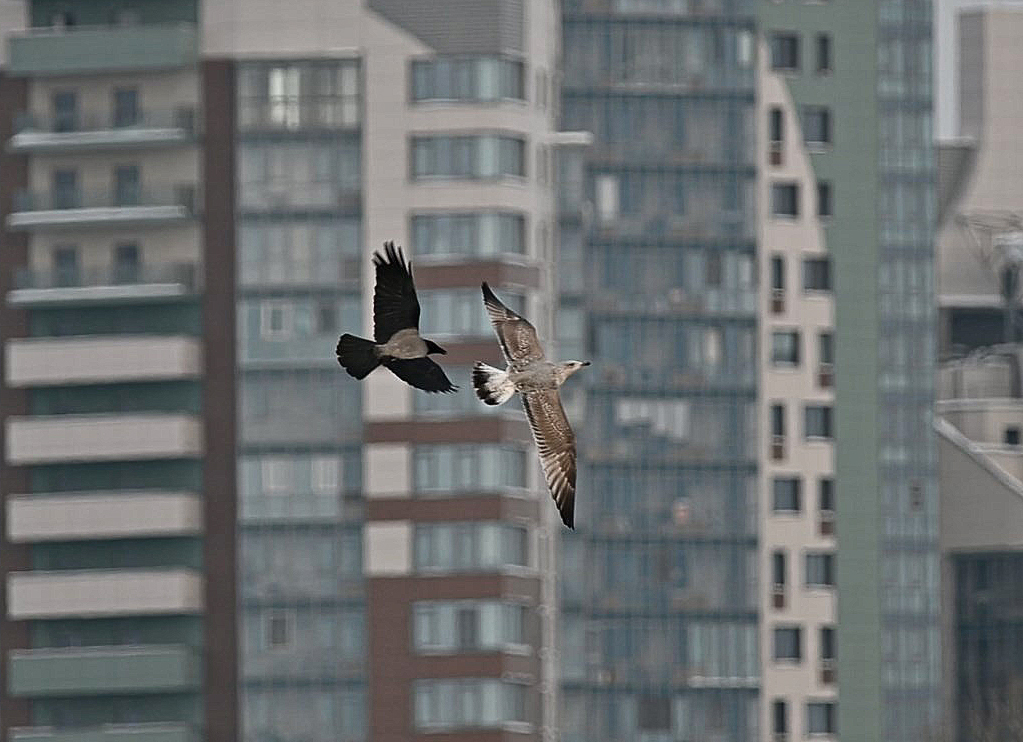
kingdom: Animalia
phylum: Chordata
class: Aves
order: Charadriiformes
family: Laridae
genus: Larus
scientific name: Larus argentatus
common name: Herring gull
